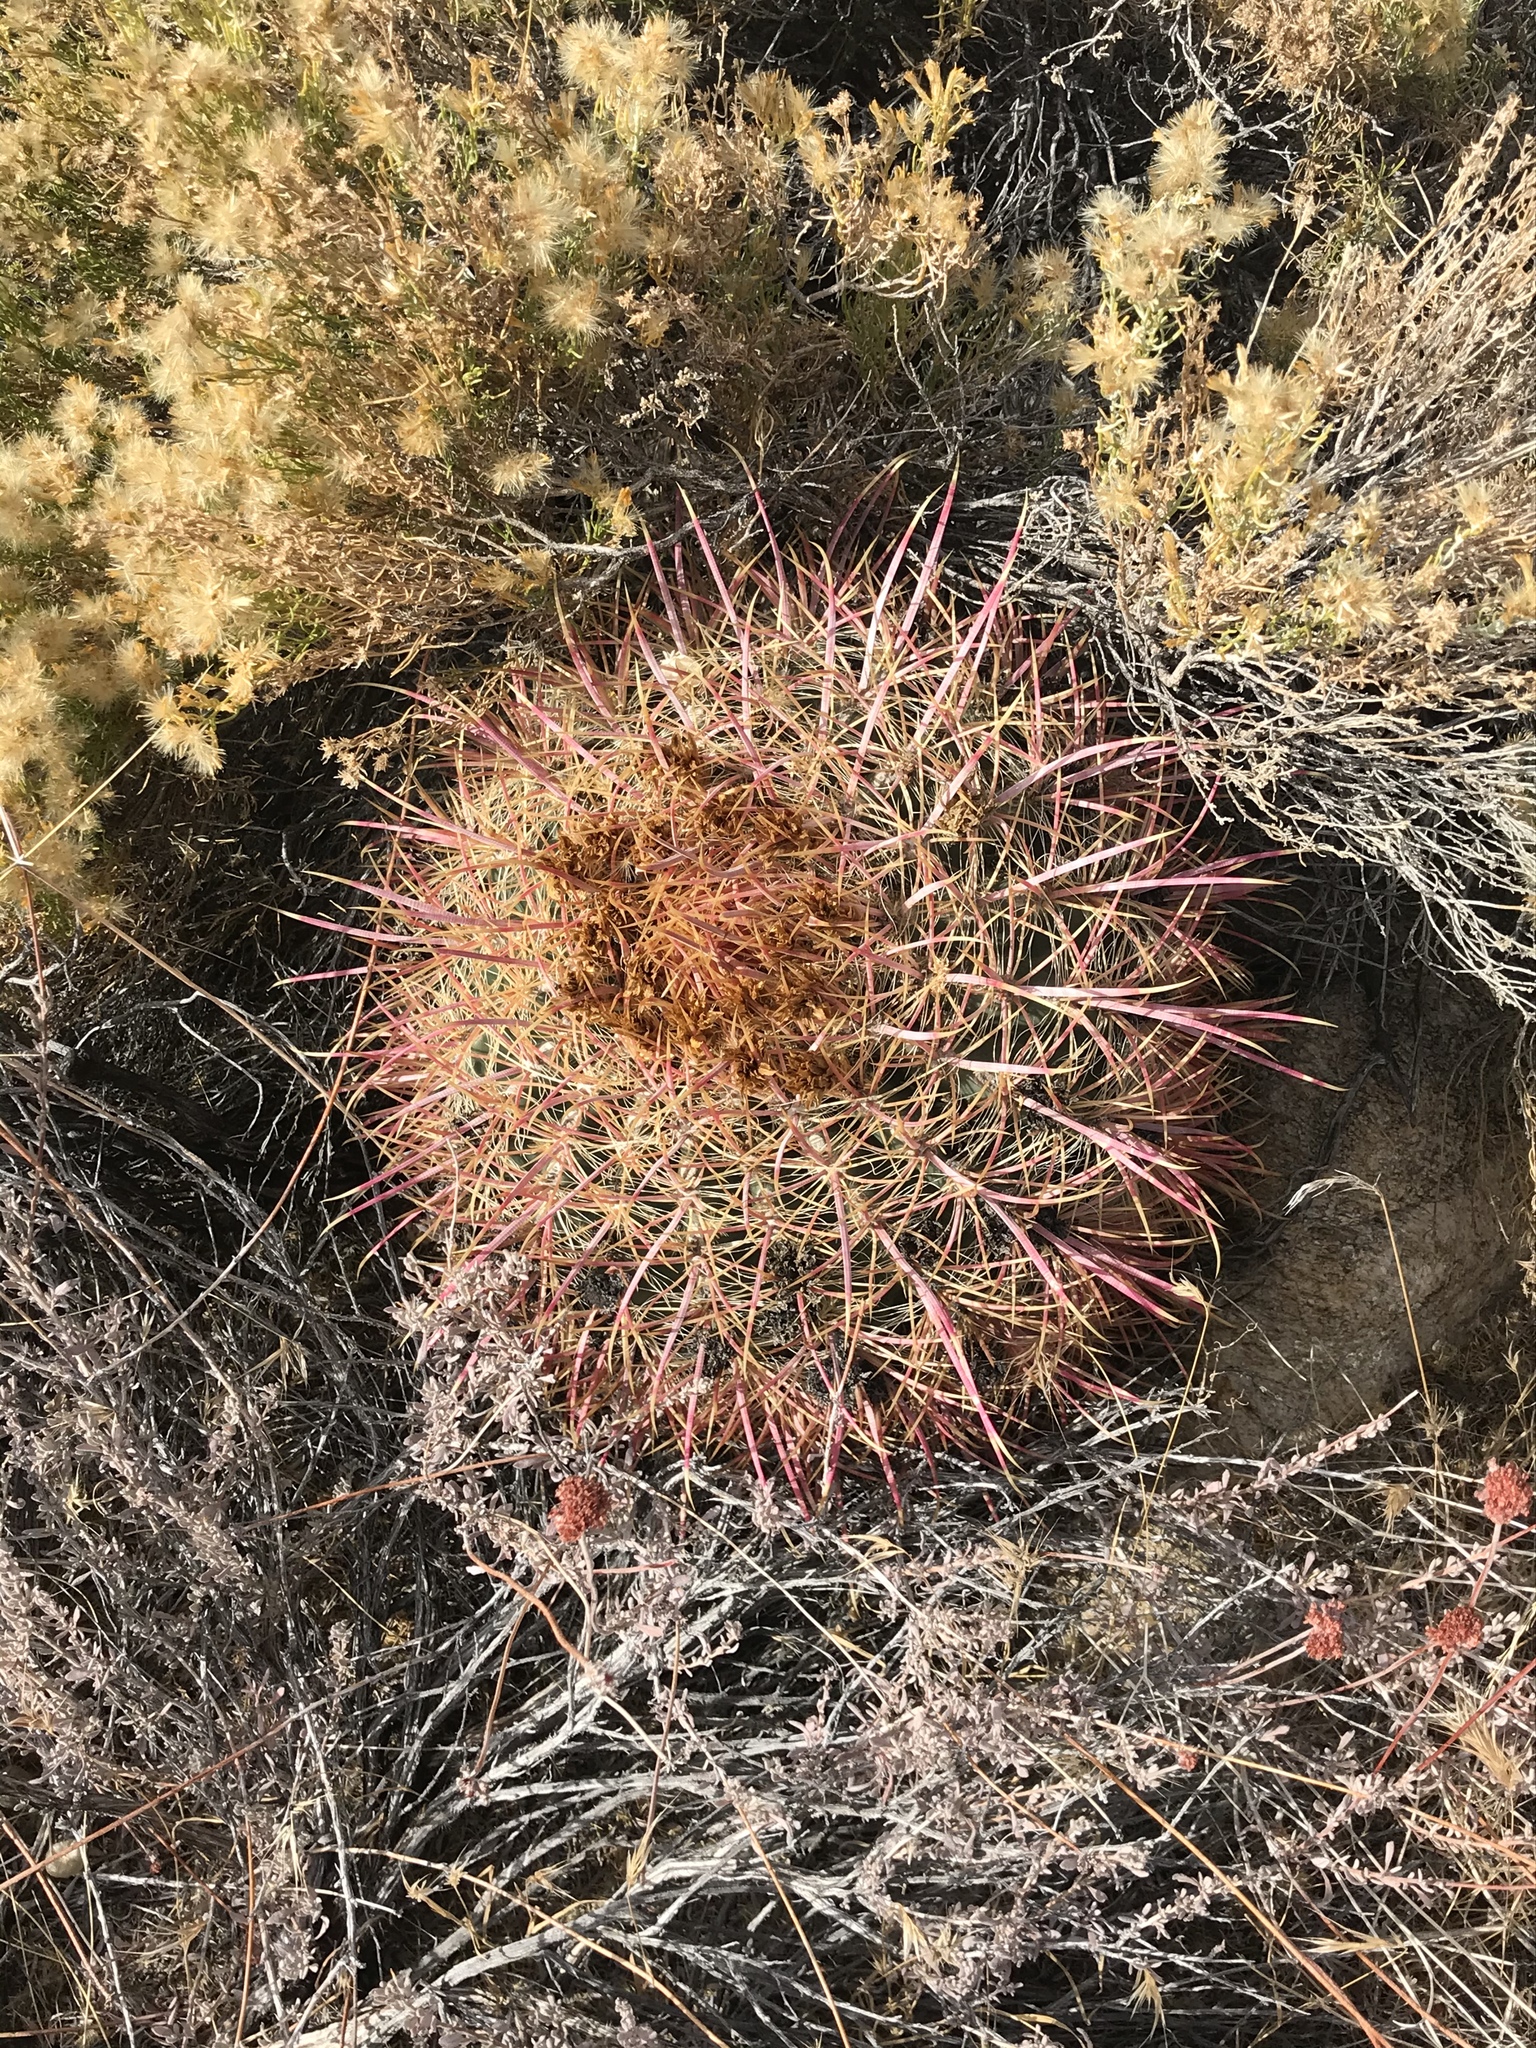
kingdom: Plantae
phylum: Tracheophyta
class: Magnoliopsida
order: Caryophyllales
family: Cactaceae
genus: Ferocactus
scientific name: Ferocactus cylindraceus
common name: California barrel cactus
